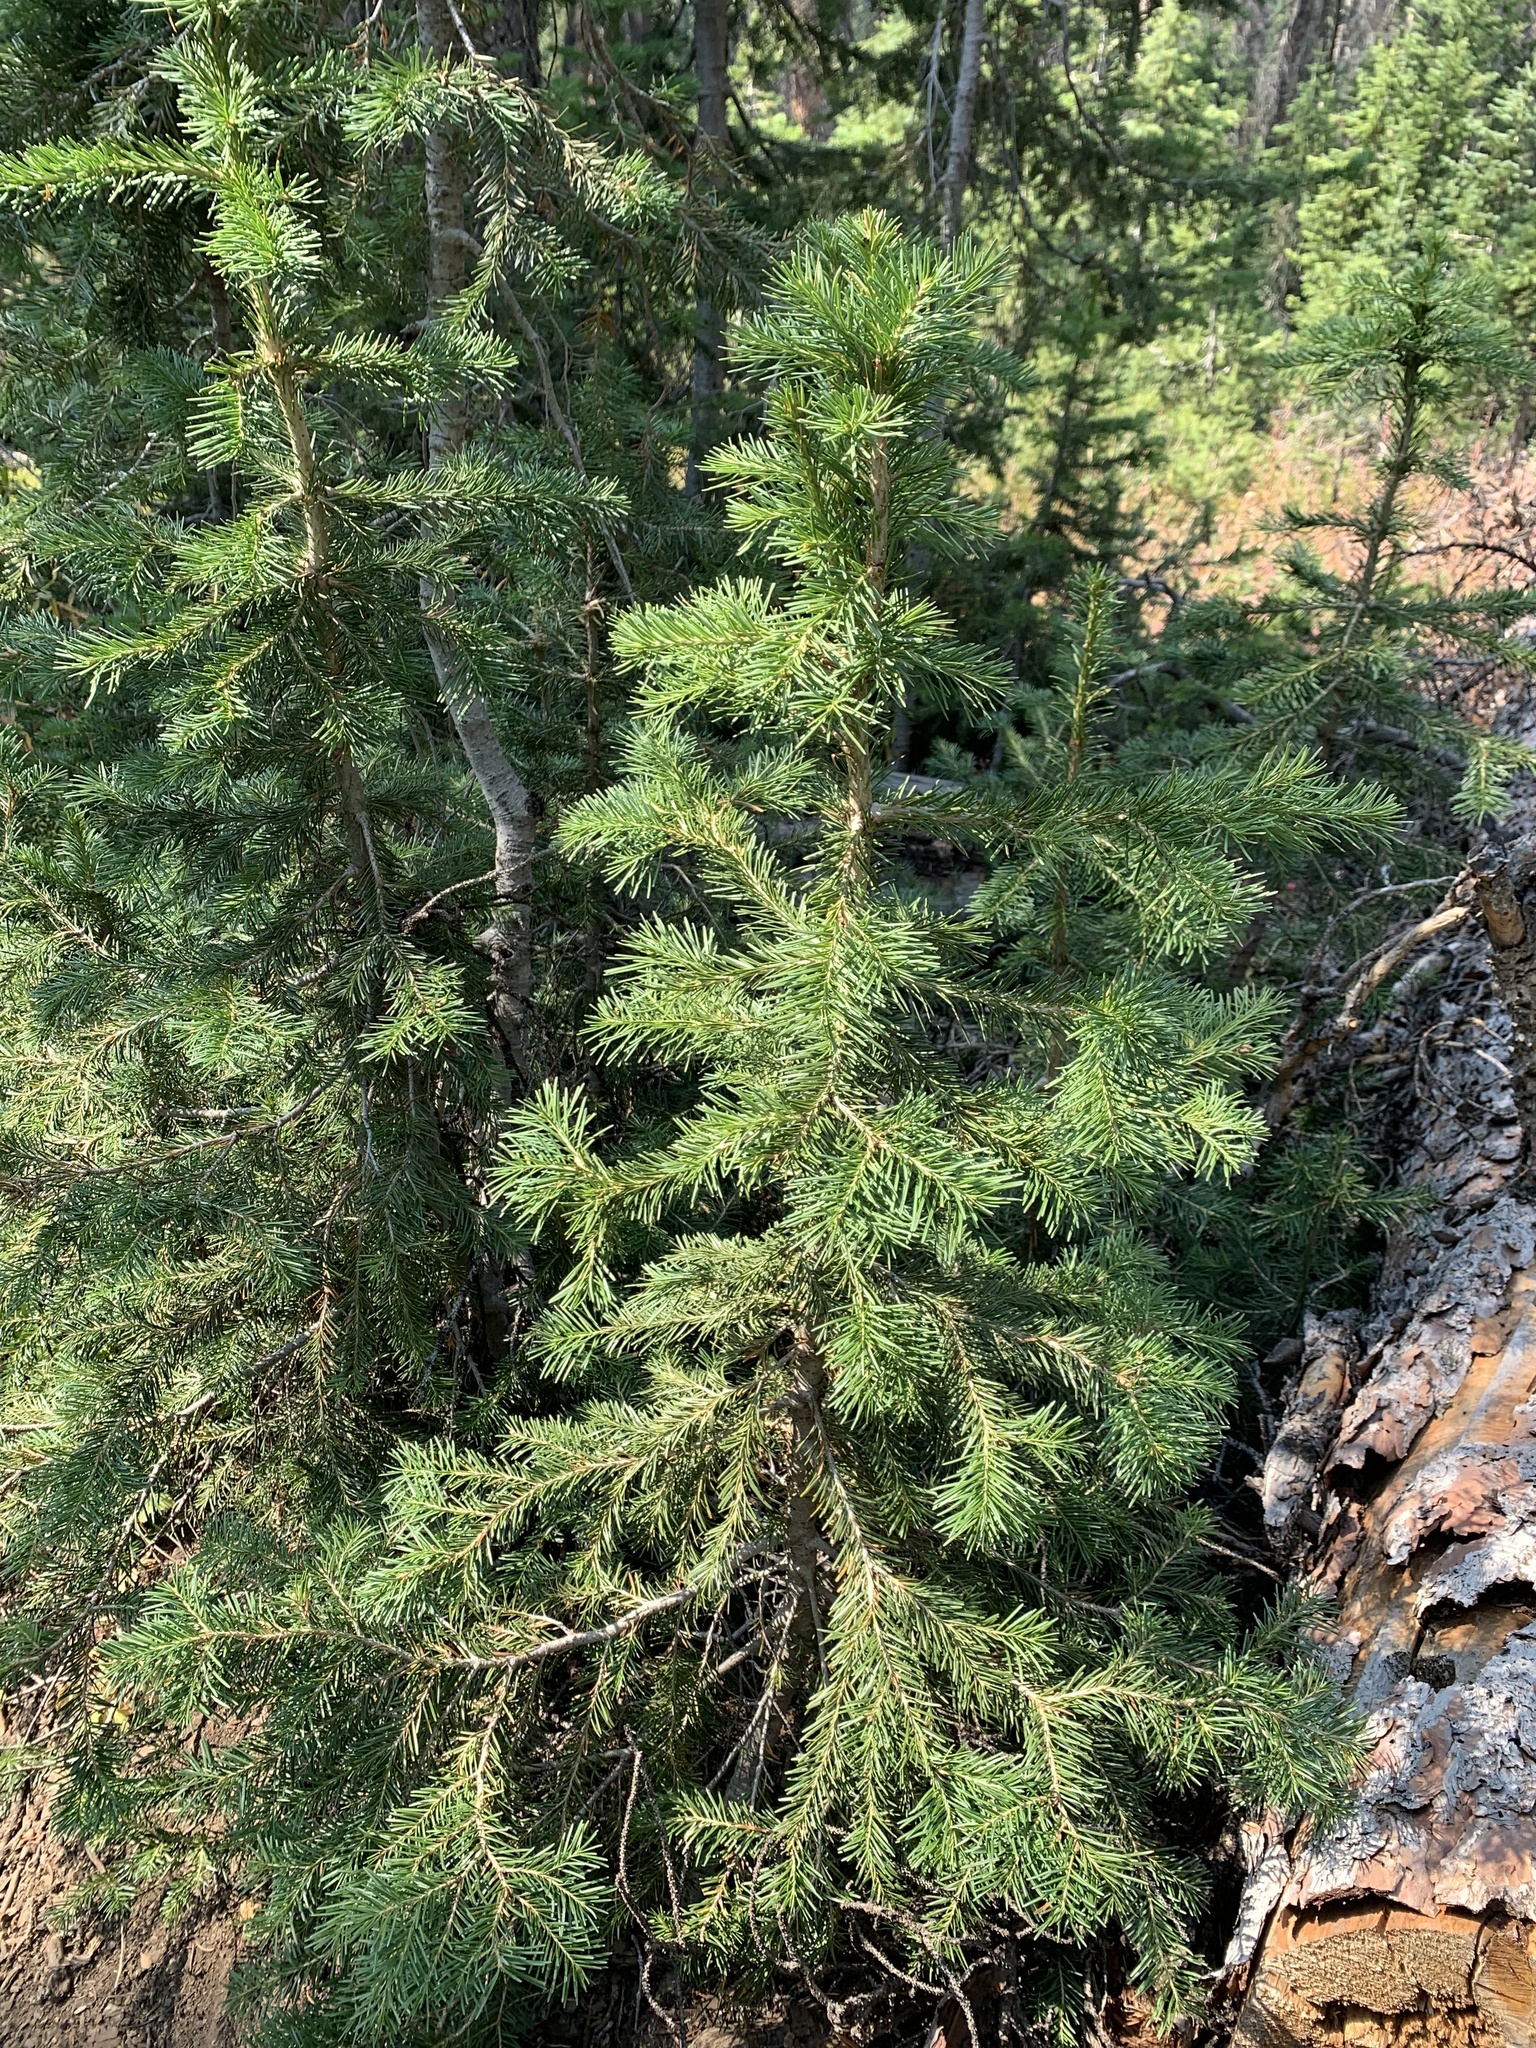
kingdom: Plantae
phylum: Tracheophyta
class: Pinopsida
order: Pinales
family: Pinaceae
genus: Abies
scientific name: Abies lasiocarpa
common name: Subalpine fir
